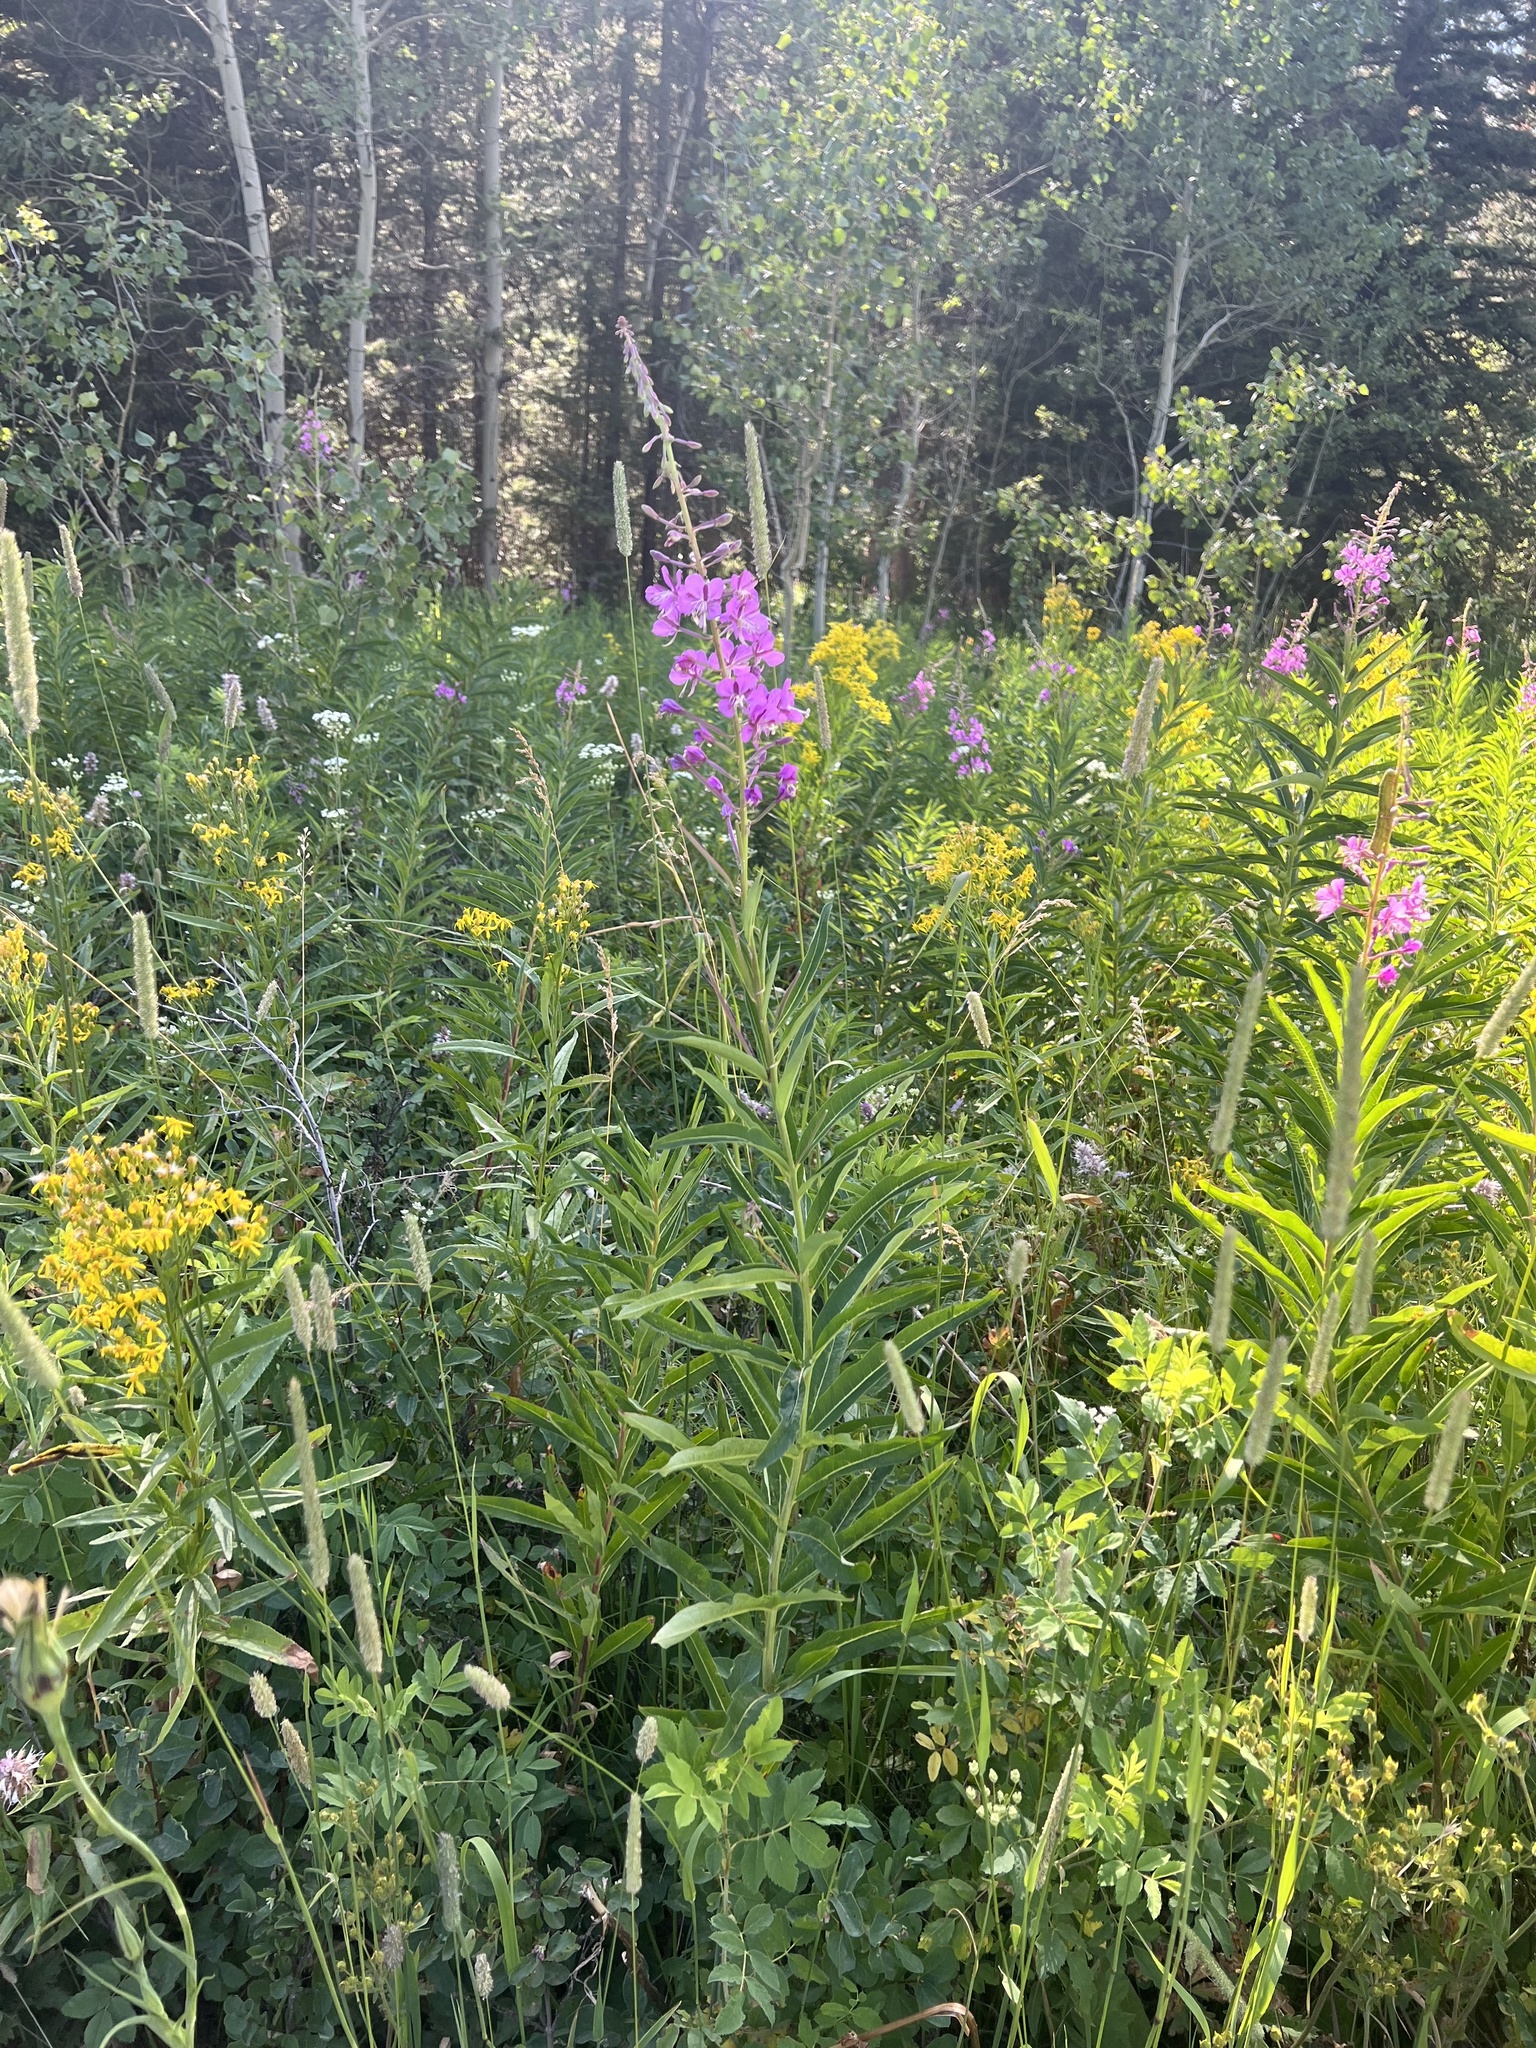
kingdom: Plantae
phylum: Tracheophyta
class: Magnoliopsida
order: Myrtales
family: Onagraceae
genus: Chamaenerion
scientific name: Chamaenerion angustifolium
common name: Fireweed
